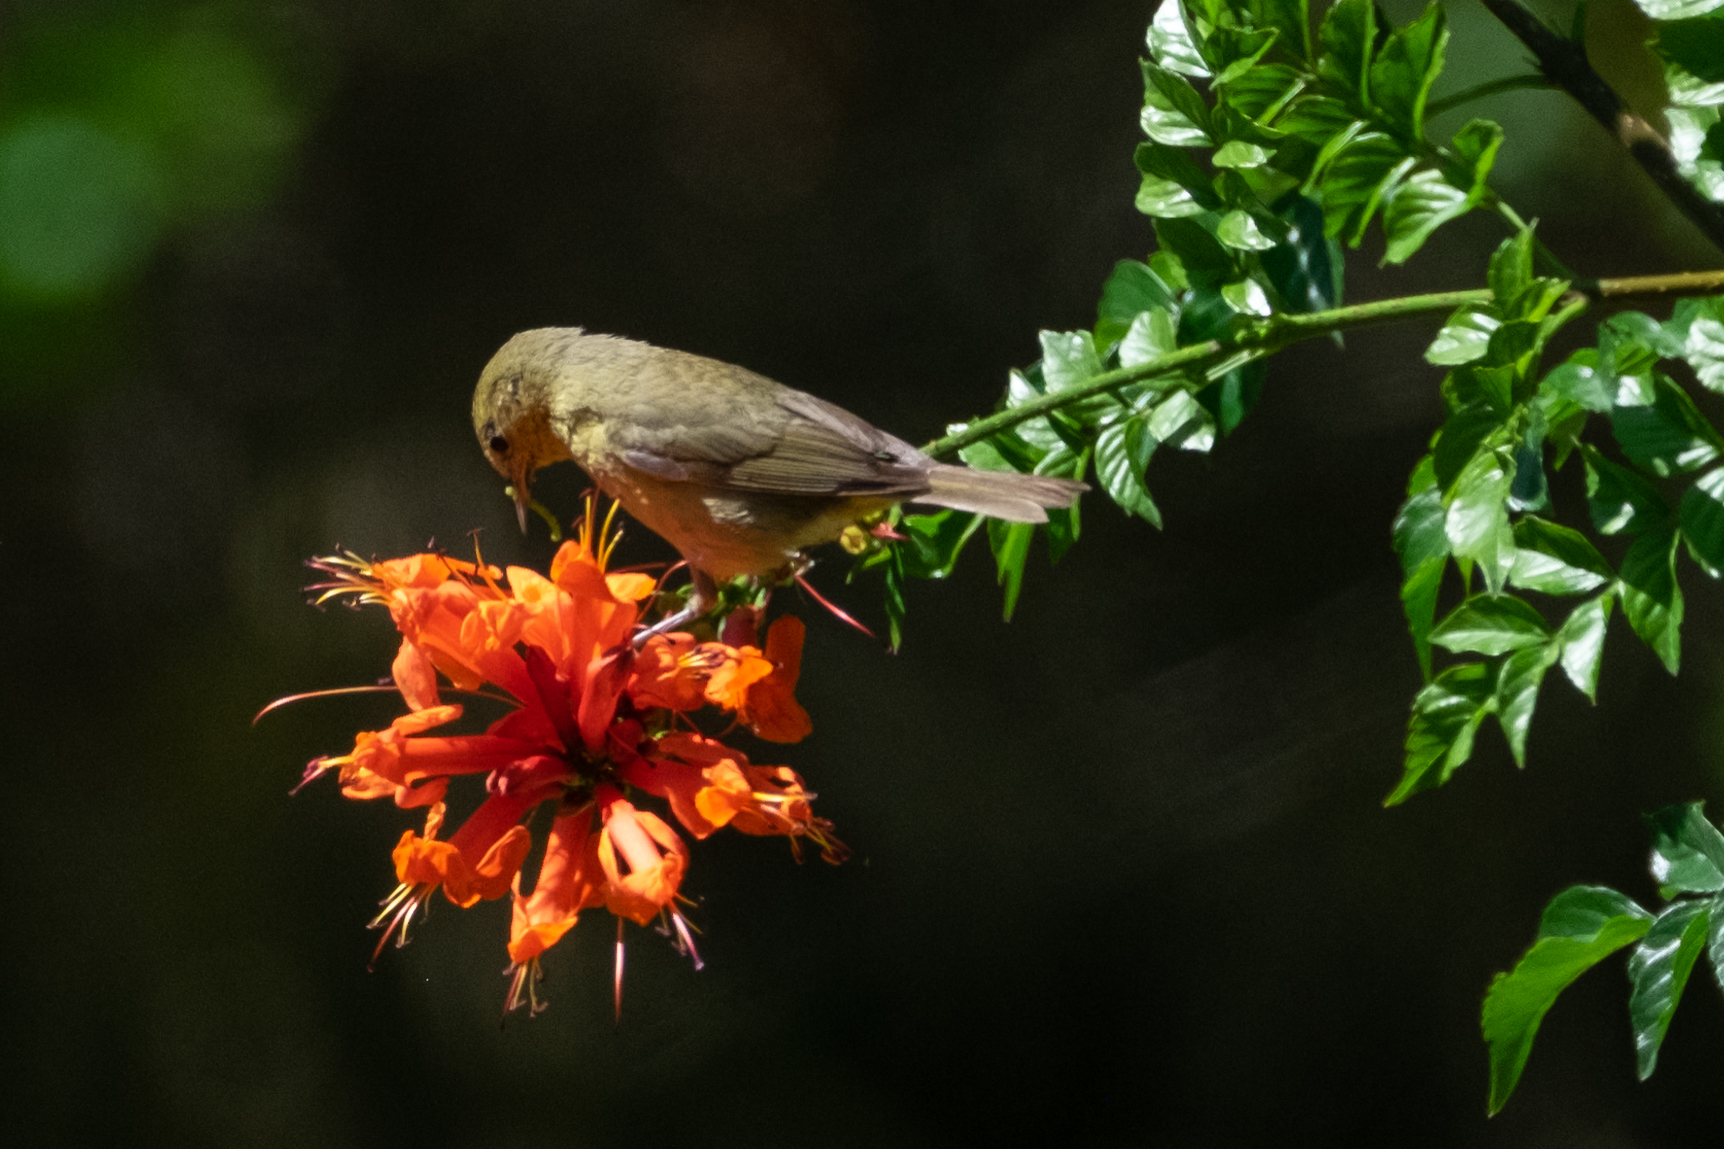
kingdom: Animalia
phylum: Chordata
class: Aves
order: Passeriformes
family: Parulidae
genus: Leiothlypis
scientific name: Leiothlypis celata
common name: Orange-crowned warbler
